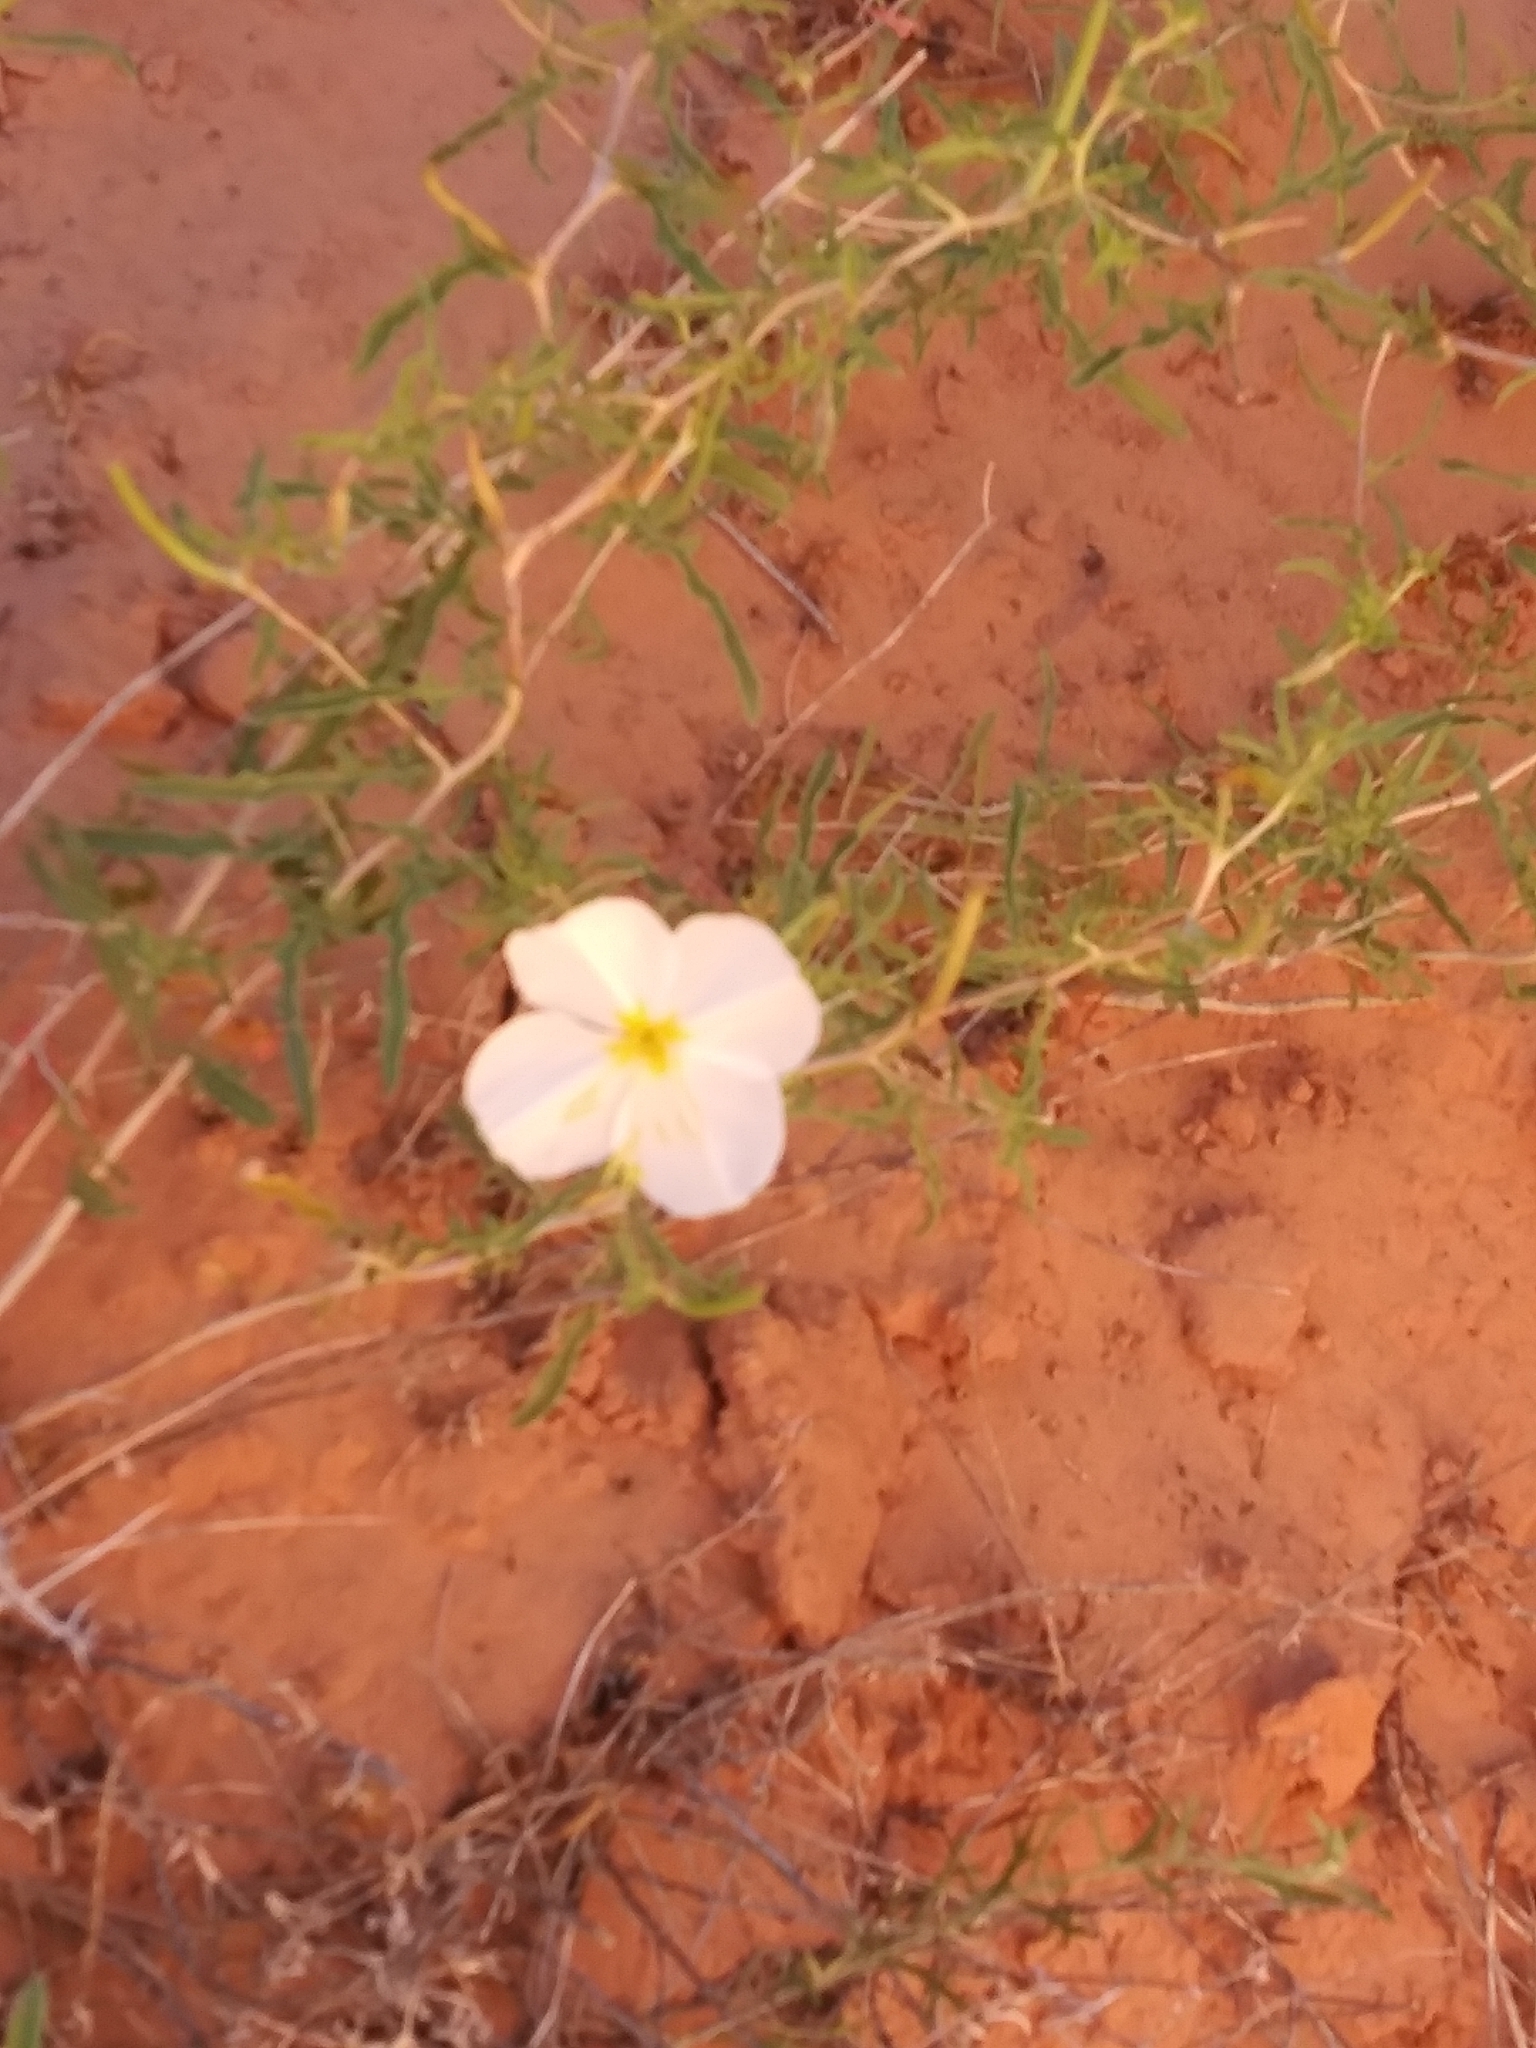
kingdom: Plantae
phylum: Tracheophyta
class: Magnoliopsida
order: Myrtales
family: Onagraceae
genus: Oenothera
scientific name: Oenothera pallida
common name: Pale evening-primrose
